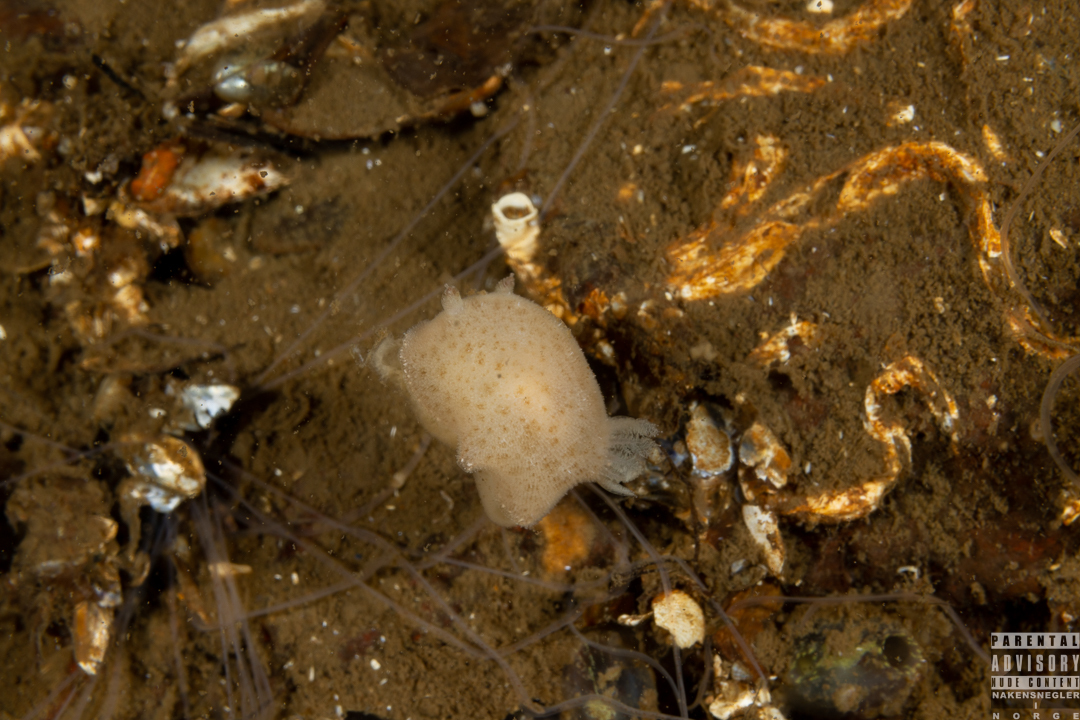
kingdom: Animalia
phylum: Mollusca
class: Gastropoda
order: Nudibranchia
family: Discodorididae
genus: Jorunna
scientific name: Jorunna tomentosa
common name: Grey sea slug
